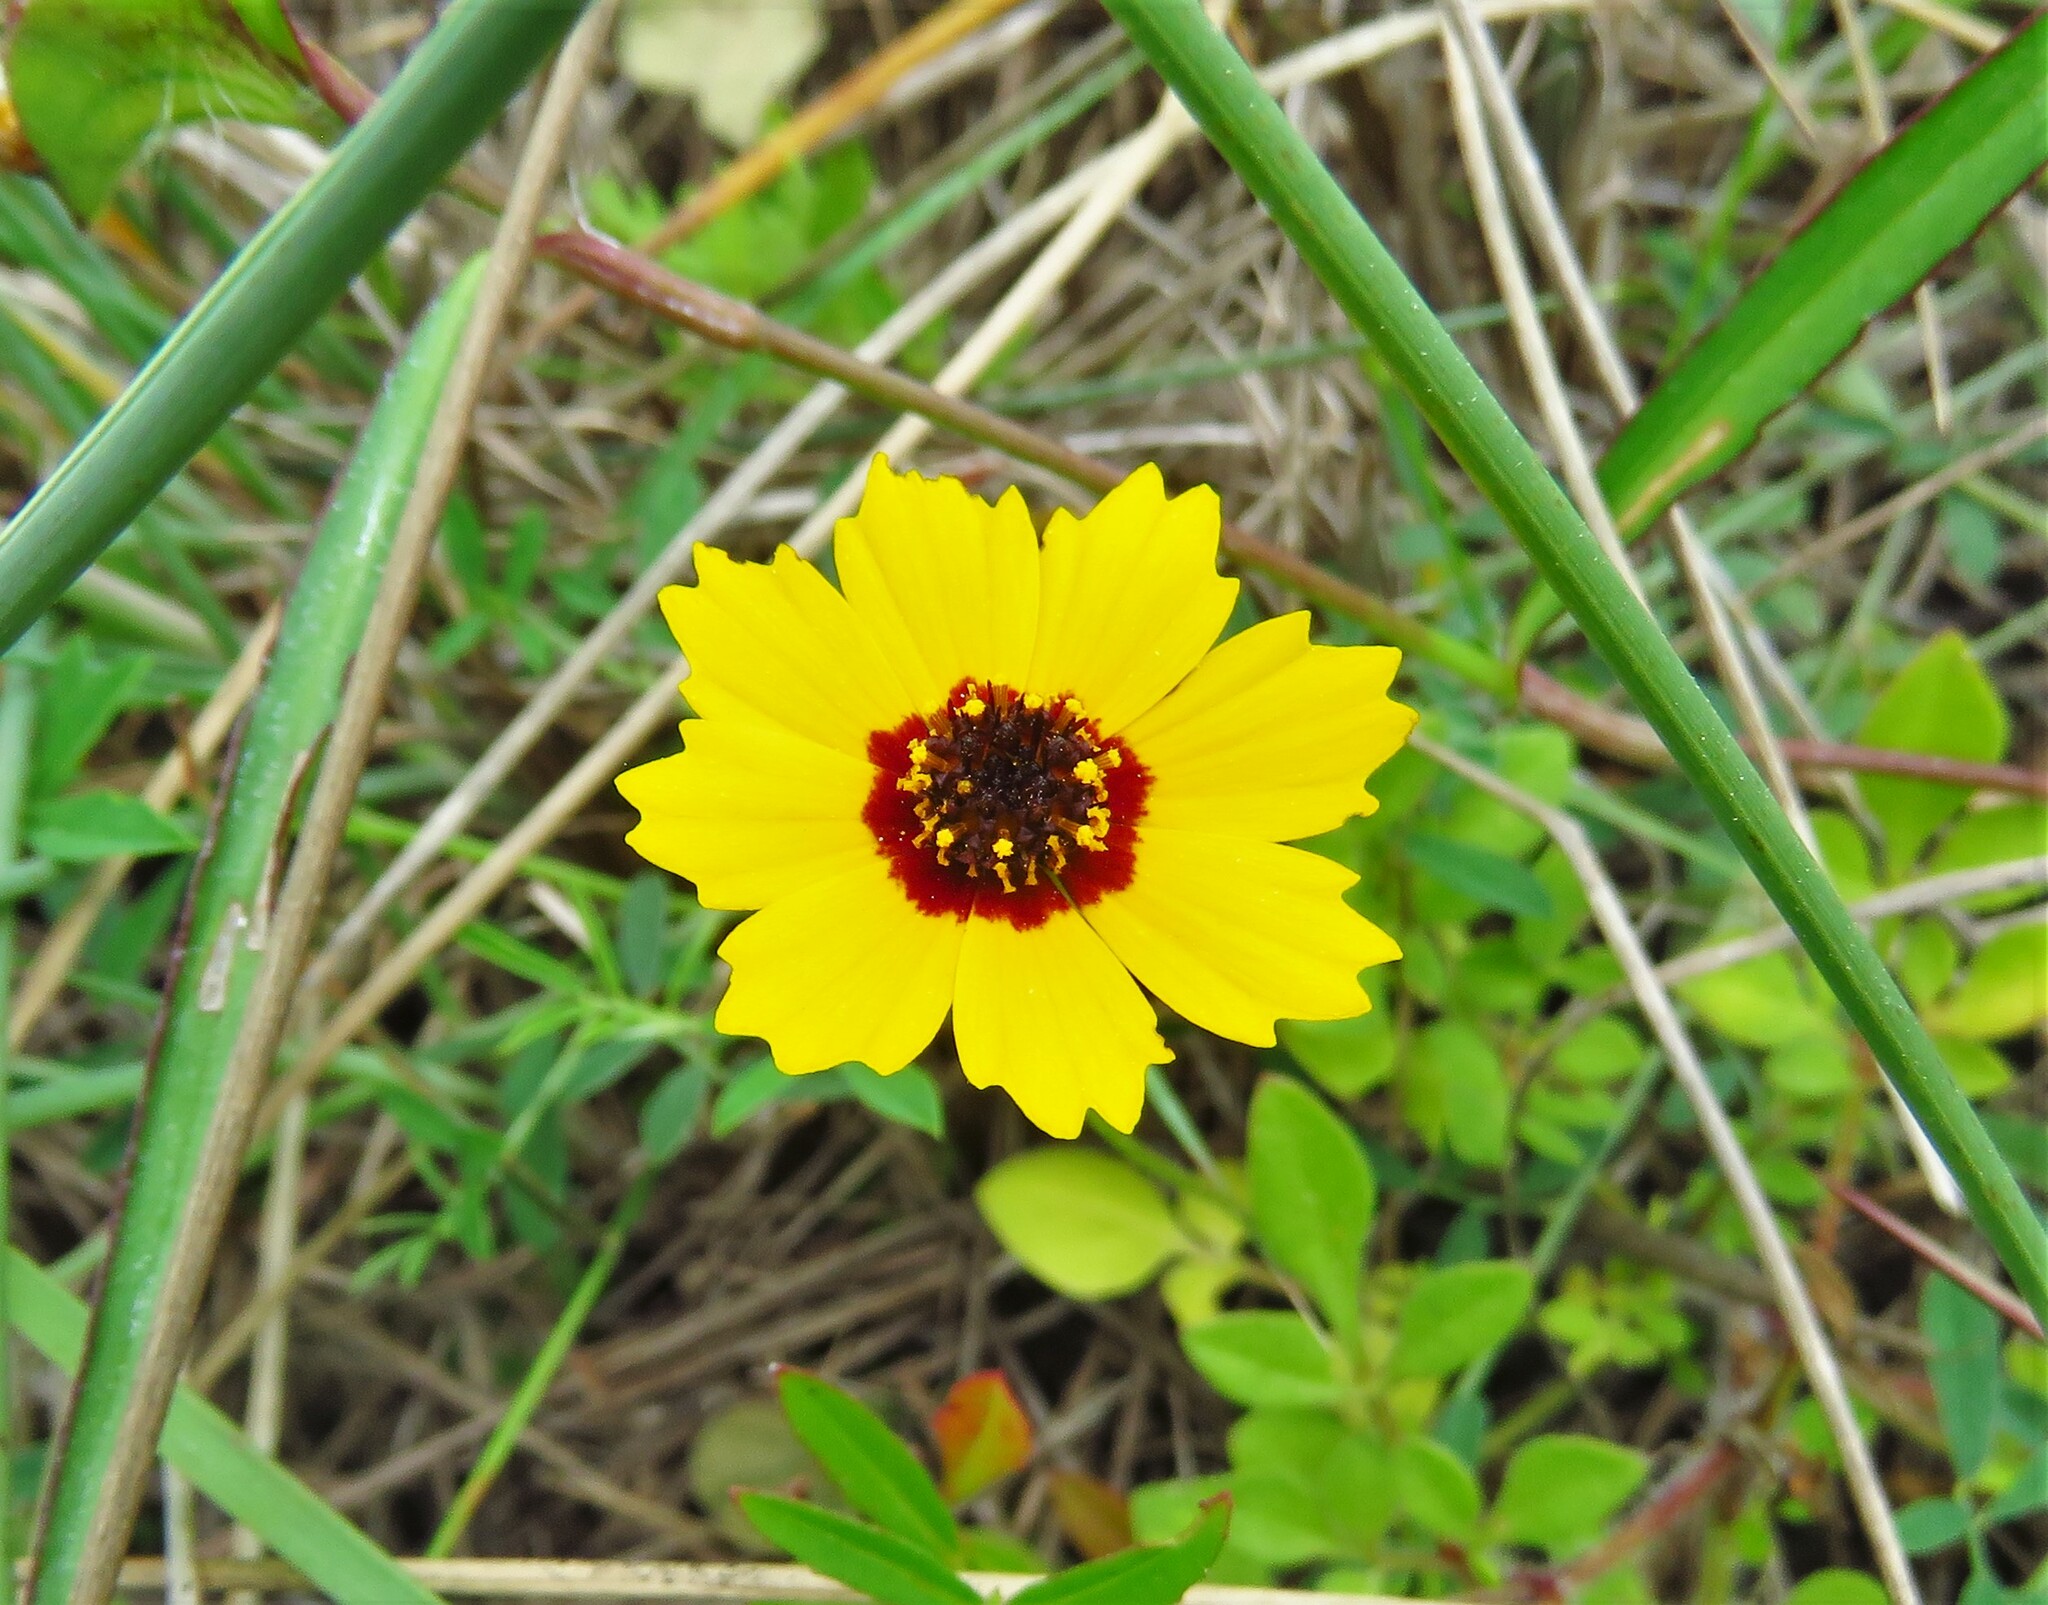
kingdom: Plantae
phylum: Tracheophyta
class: Magnoliopsida
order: Asterales
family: Asteraceae
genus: Coreopsis
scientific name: Coreopsis basalis
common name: Golden-mane coreopsis
